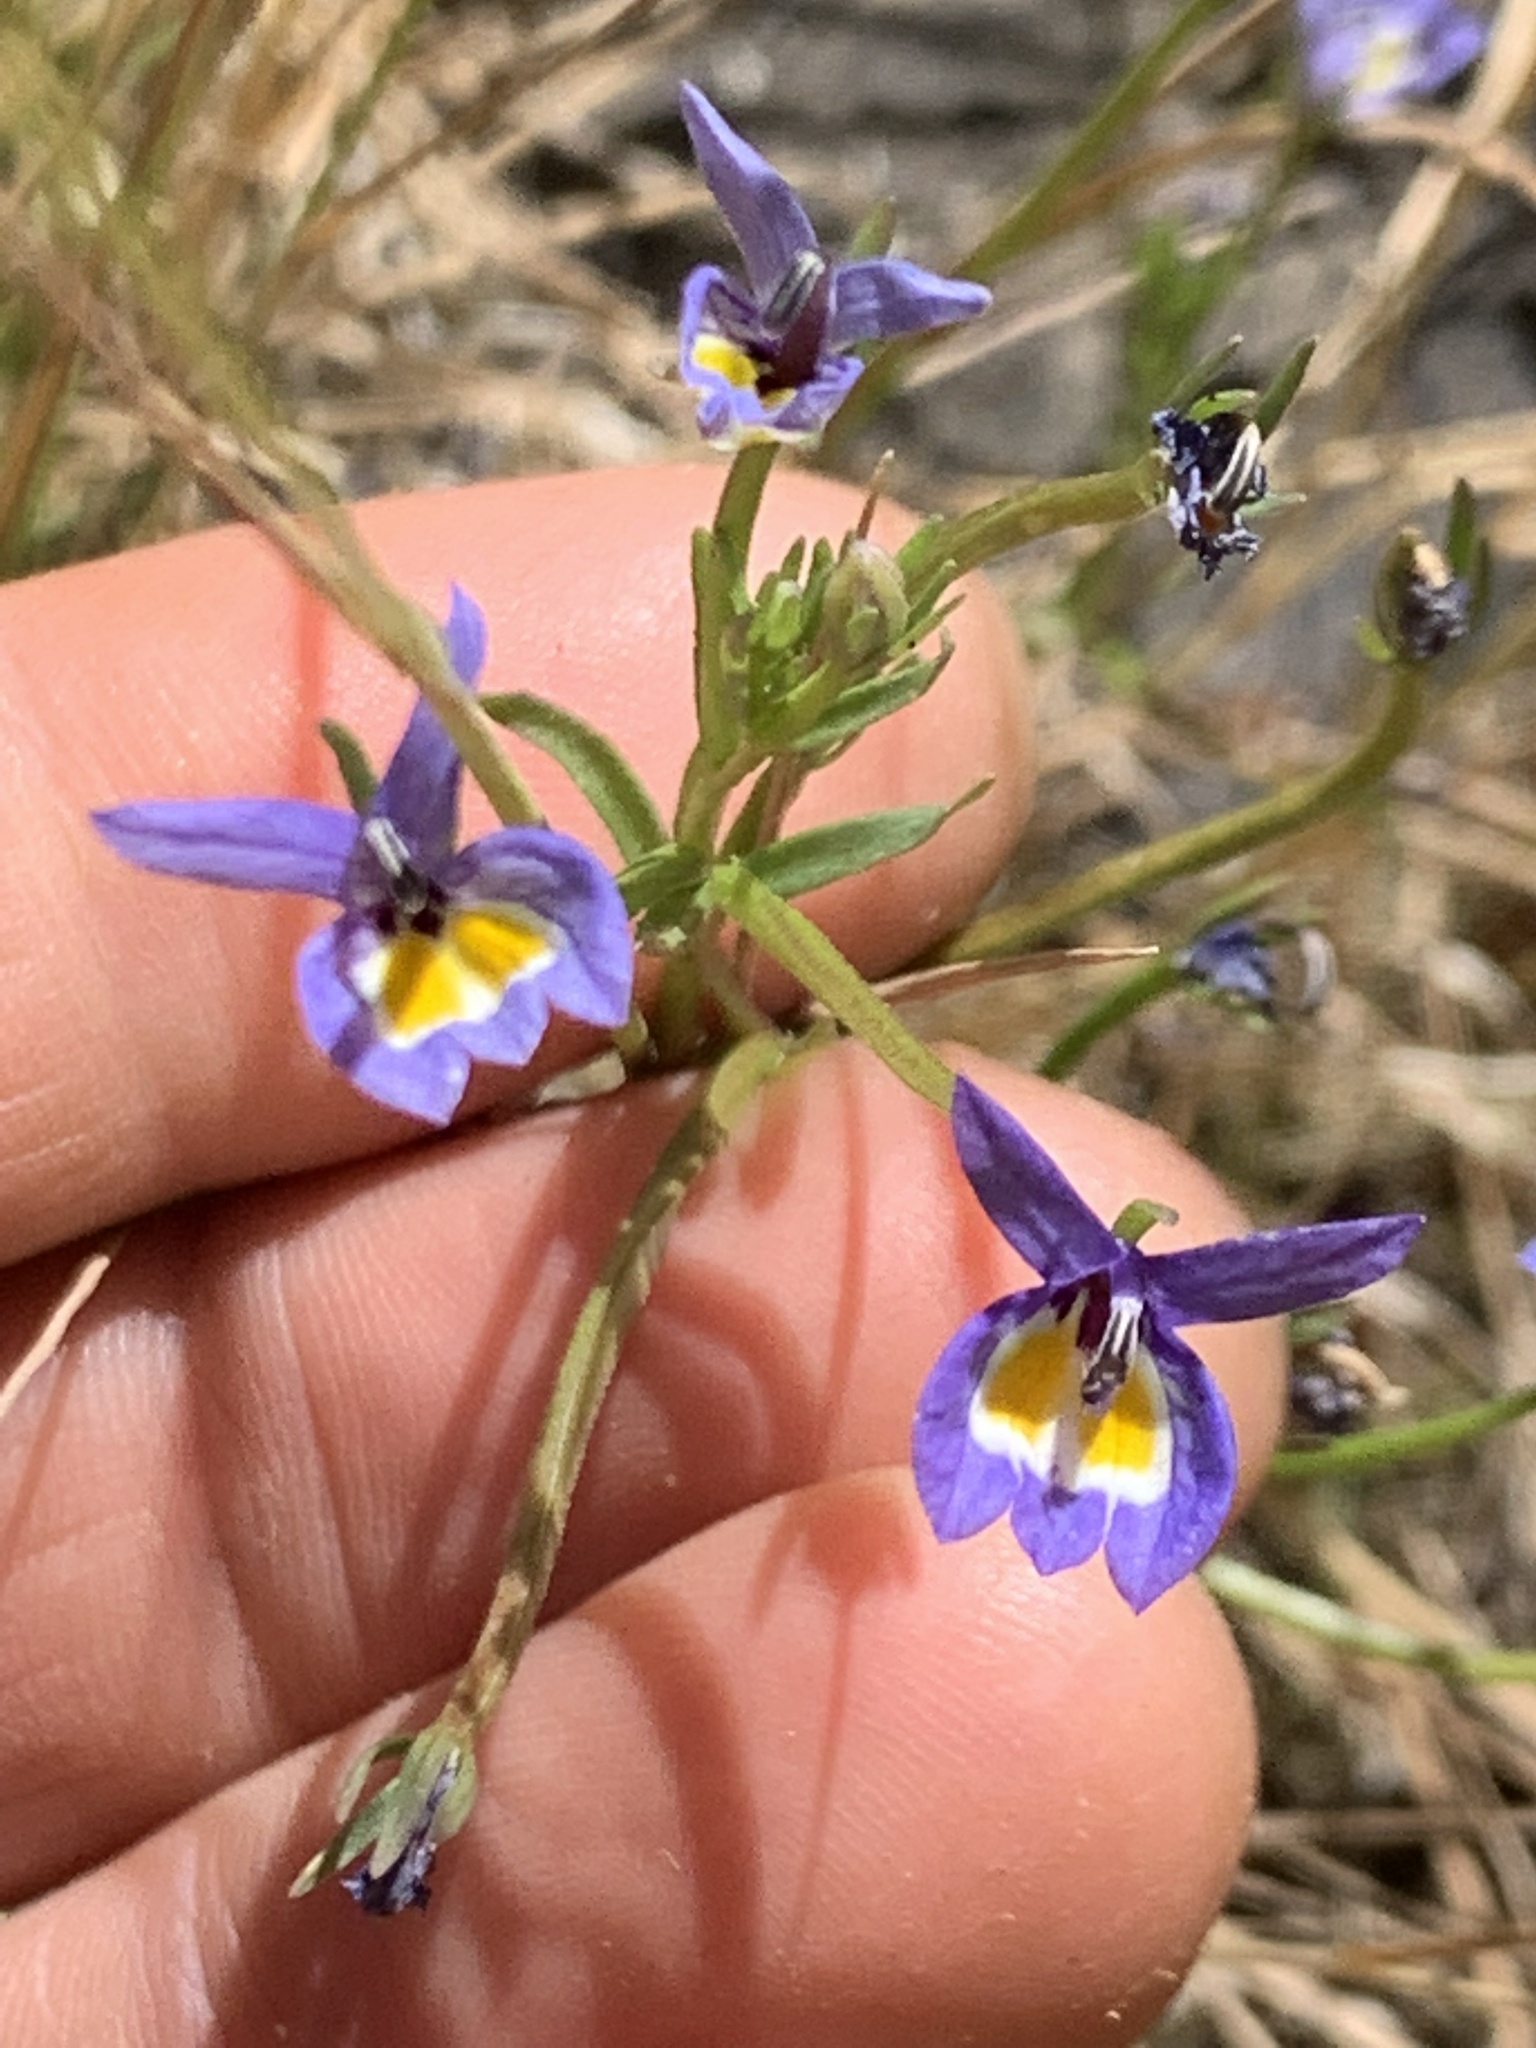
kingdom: Plantae
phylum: Tracheophyta
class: Magnoliopsida
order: Asterales
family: Campanulaceae
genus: Downingia
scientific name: Downingia bacigalupii
